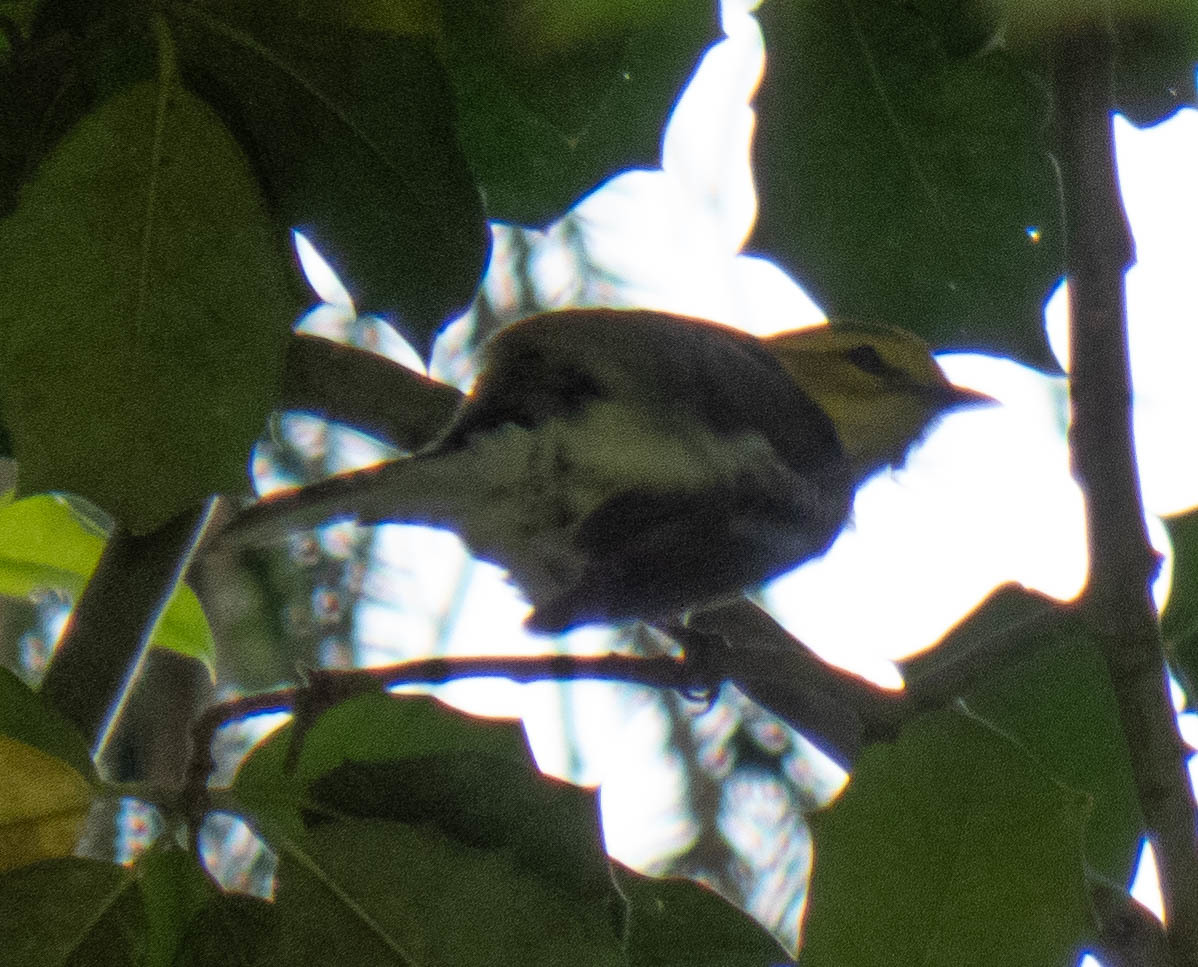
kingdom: Animalia
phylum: Chordata
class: Aves
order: Passeriformes
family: Parulidae
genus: Setophaga
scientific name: Setophaga virens
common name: Black-throated green warbler
